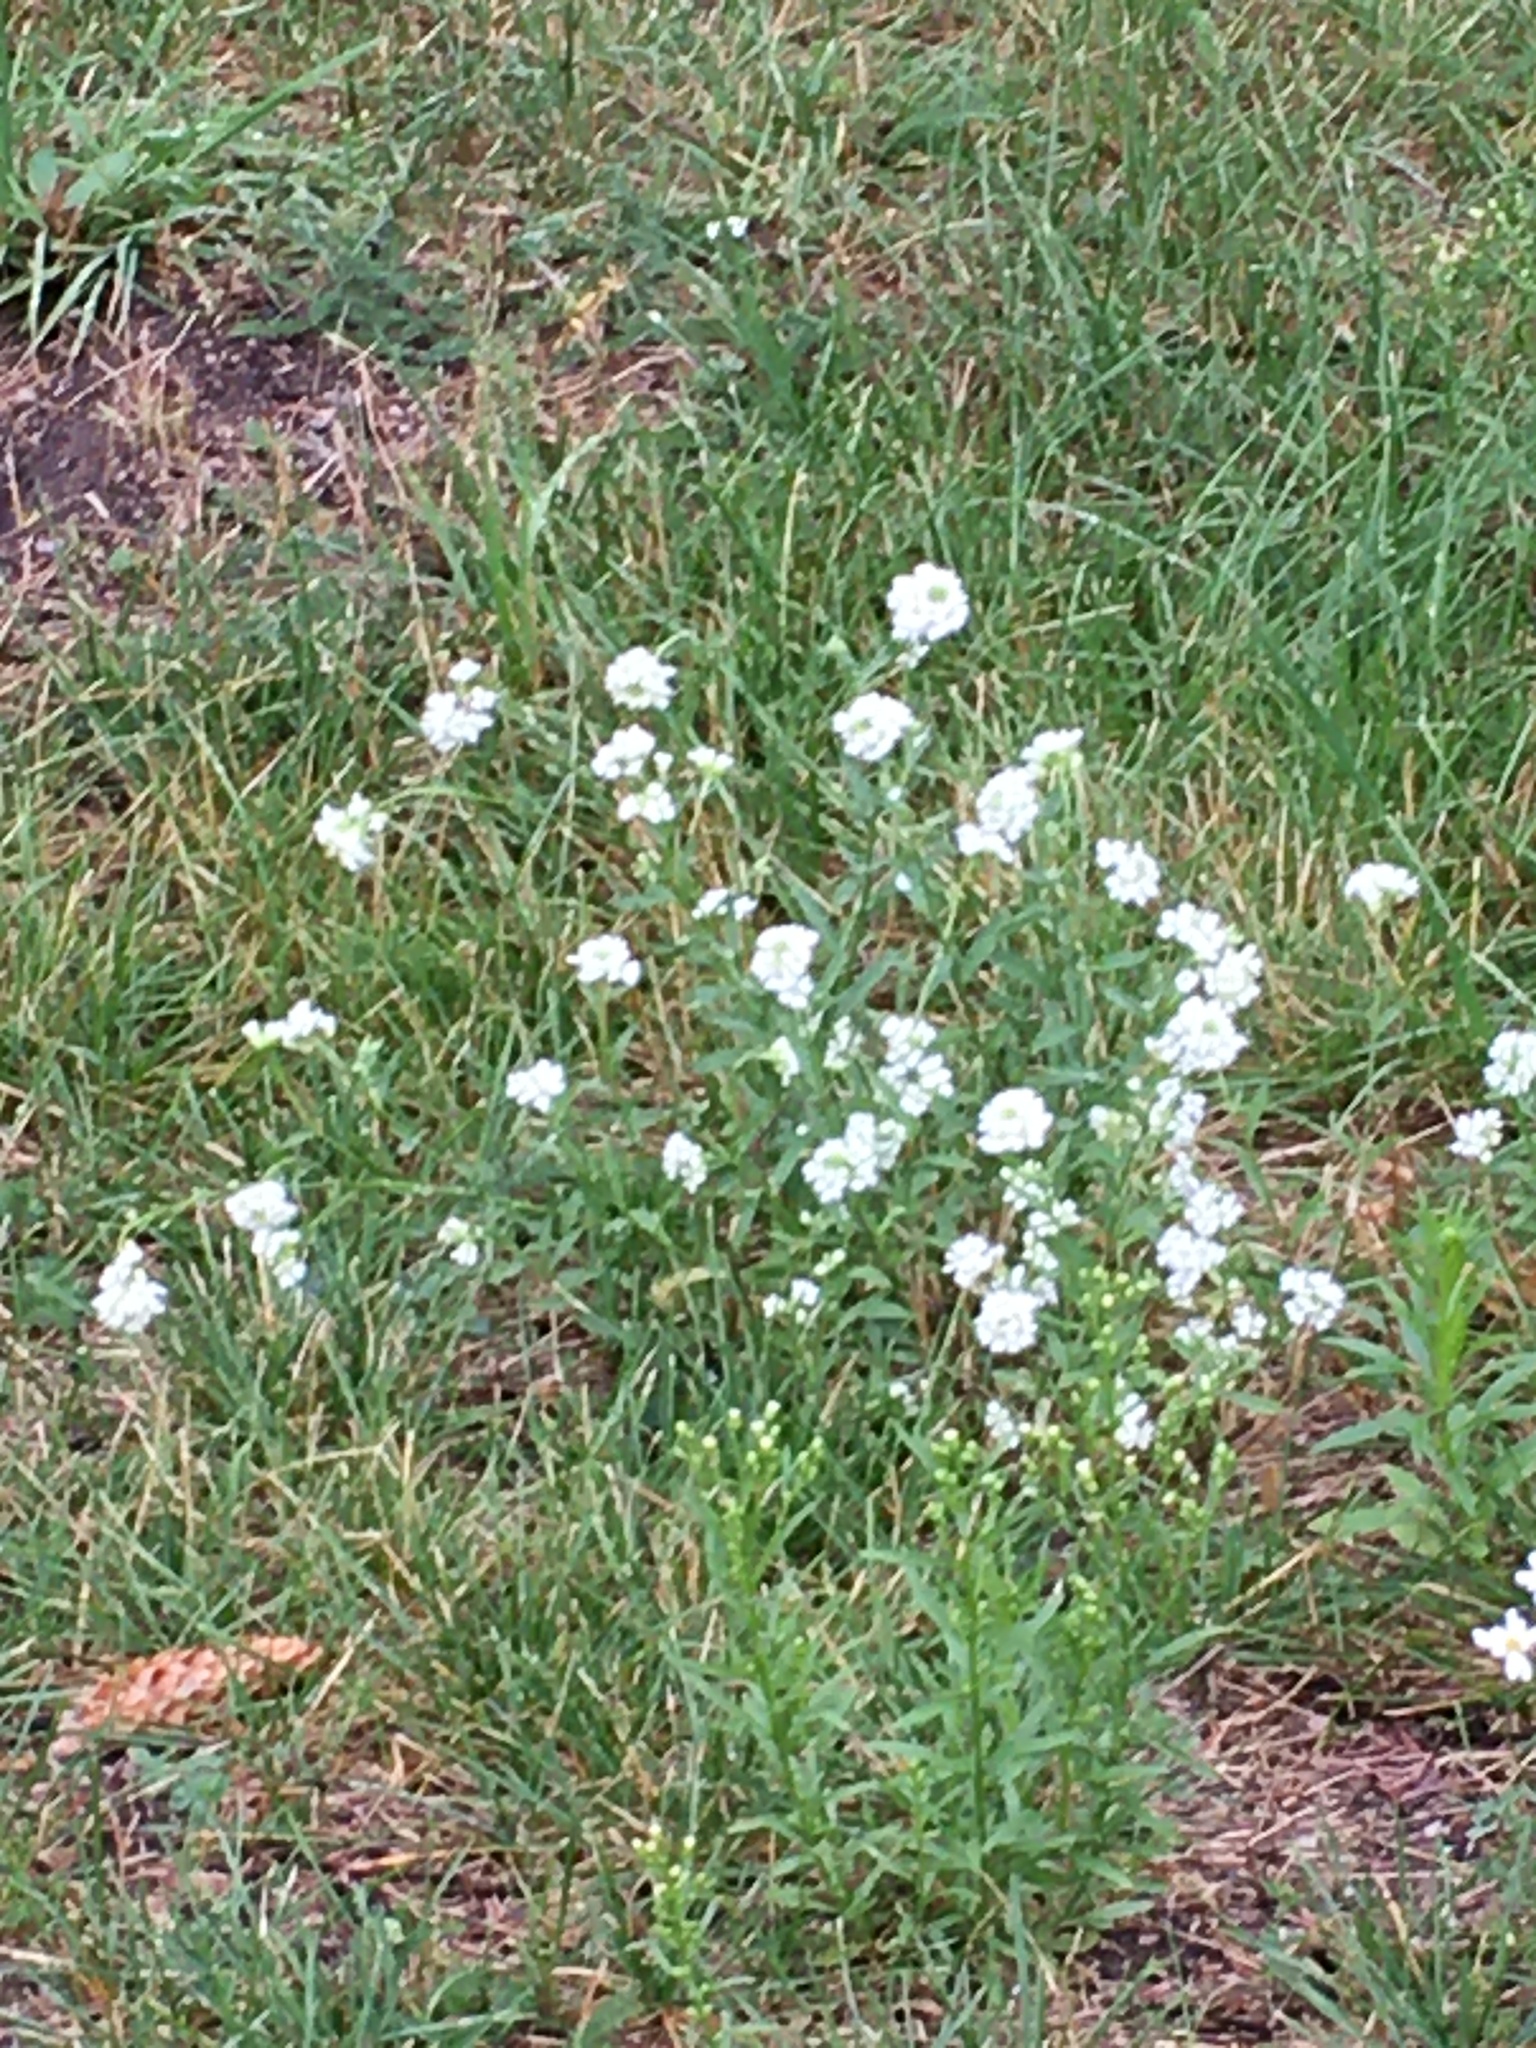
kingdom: Plantae
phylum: Tracheophyta
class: Magnoliopsida
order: Brassicales
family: Brassicaceae
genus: Berteroa
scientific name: Berteroa incana
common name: Hoary alison
